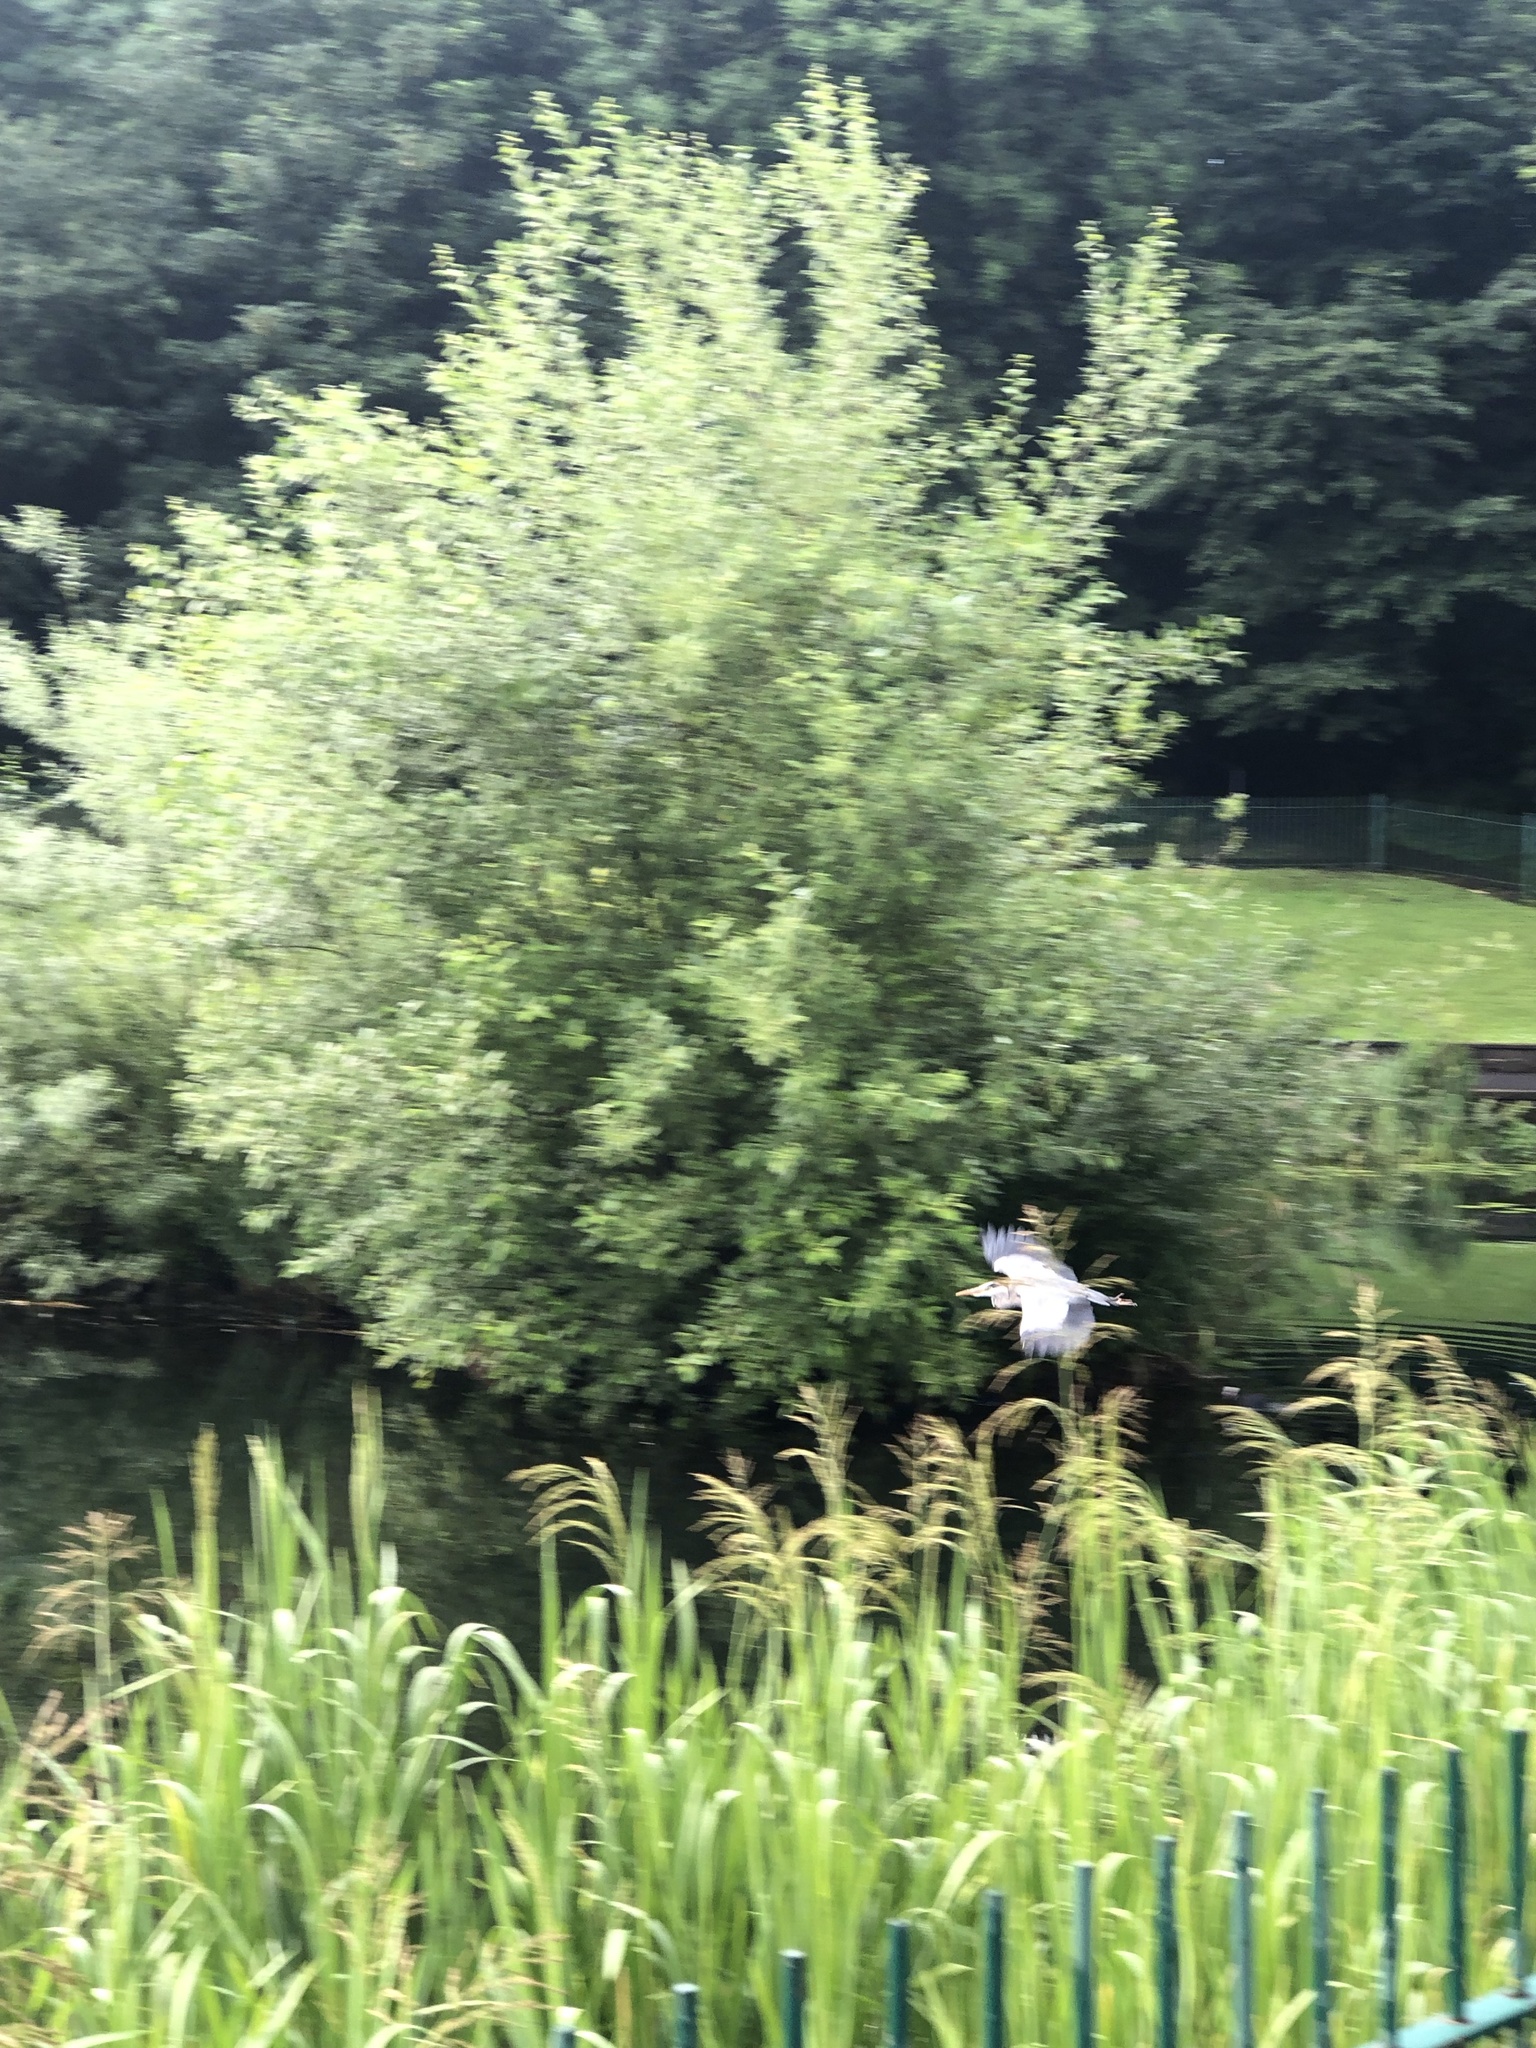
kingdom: Animalia
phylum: Chordata
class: Aves
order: Pelecaniformes
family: Ardeidae
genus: Ardea
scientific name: Ardea cinerea
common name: Grey heron
